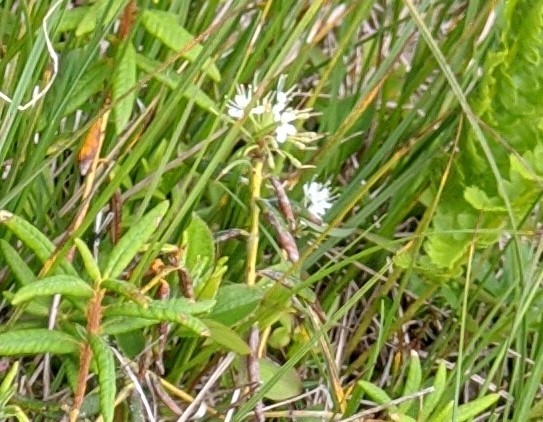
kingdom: Plantae
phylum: Tracheophyta
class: Magnoliopsida
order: Ericales
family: Ericaceae
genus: Rhododendron
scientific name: Rhododendron groenlandicum
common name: Bog labrador tea
